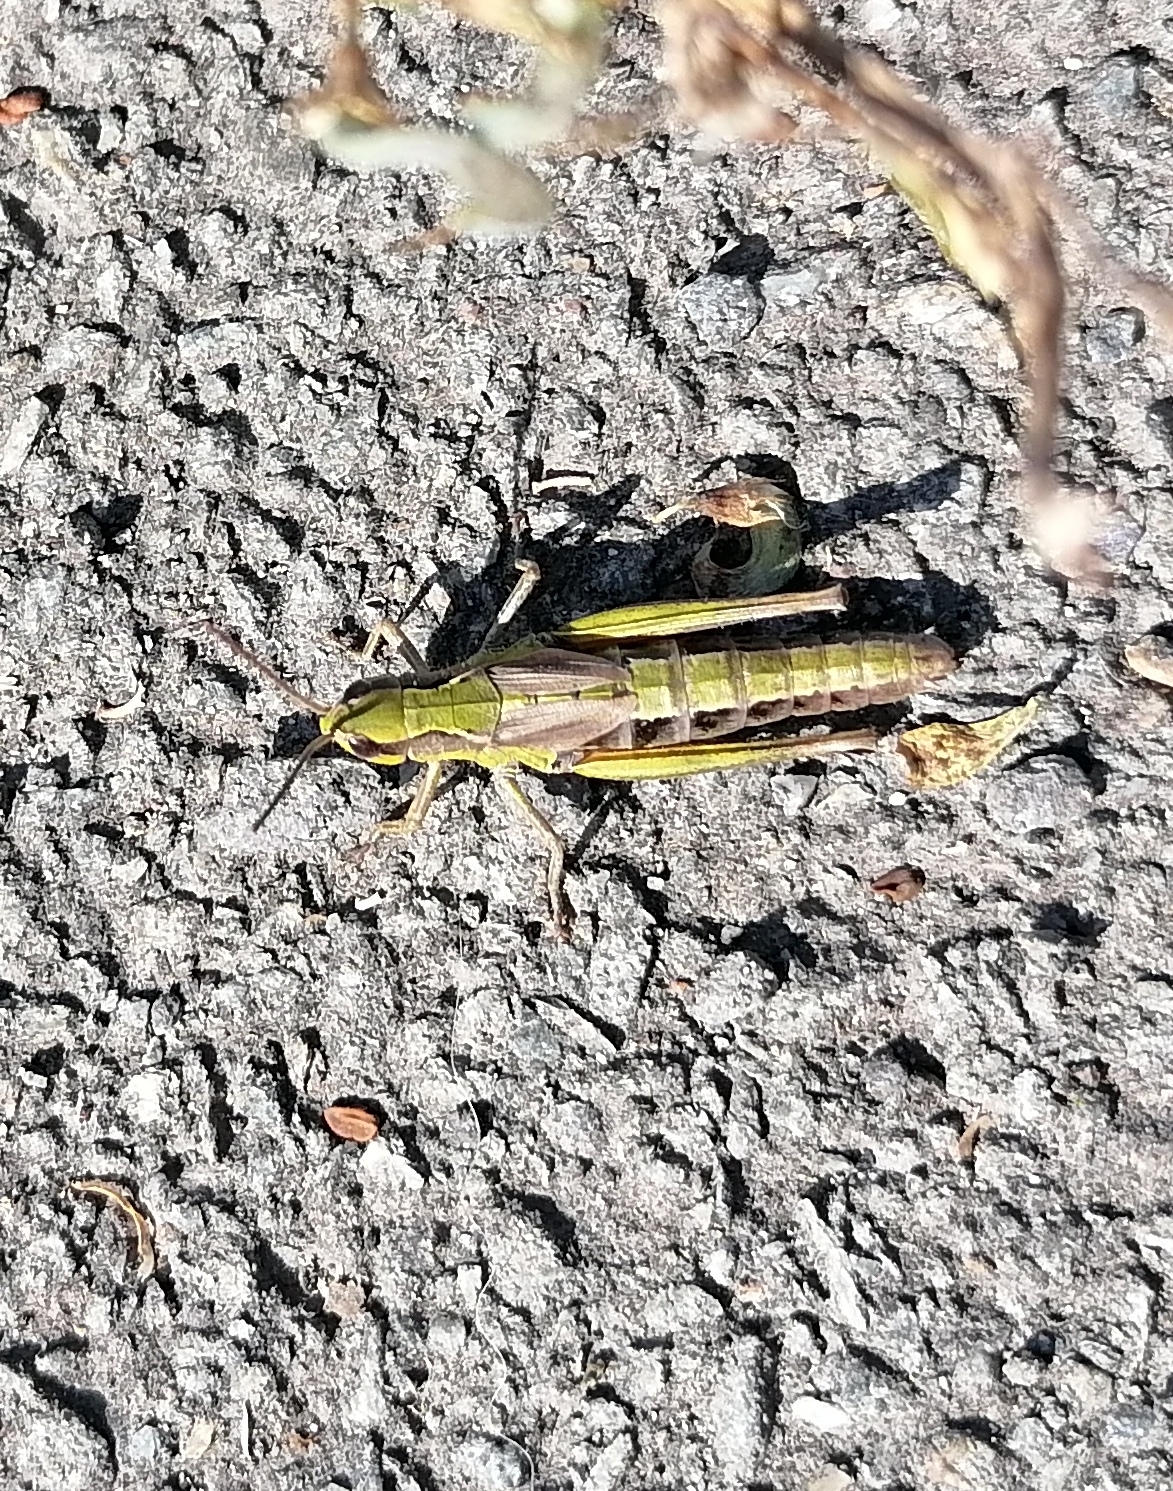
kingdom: Animalia
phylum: Arthropoda
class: Insecta
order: Orthoptera
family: Acrididae
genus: Chorthippus
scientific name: Chorthippus fallax
